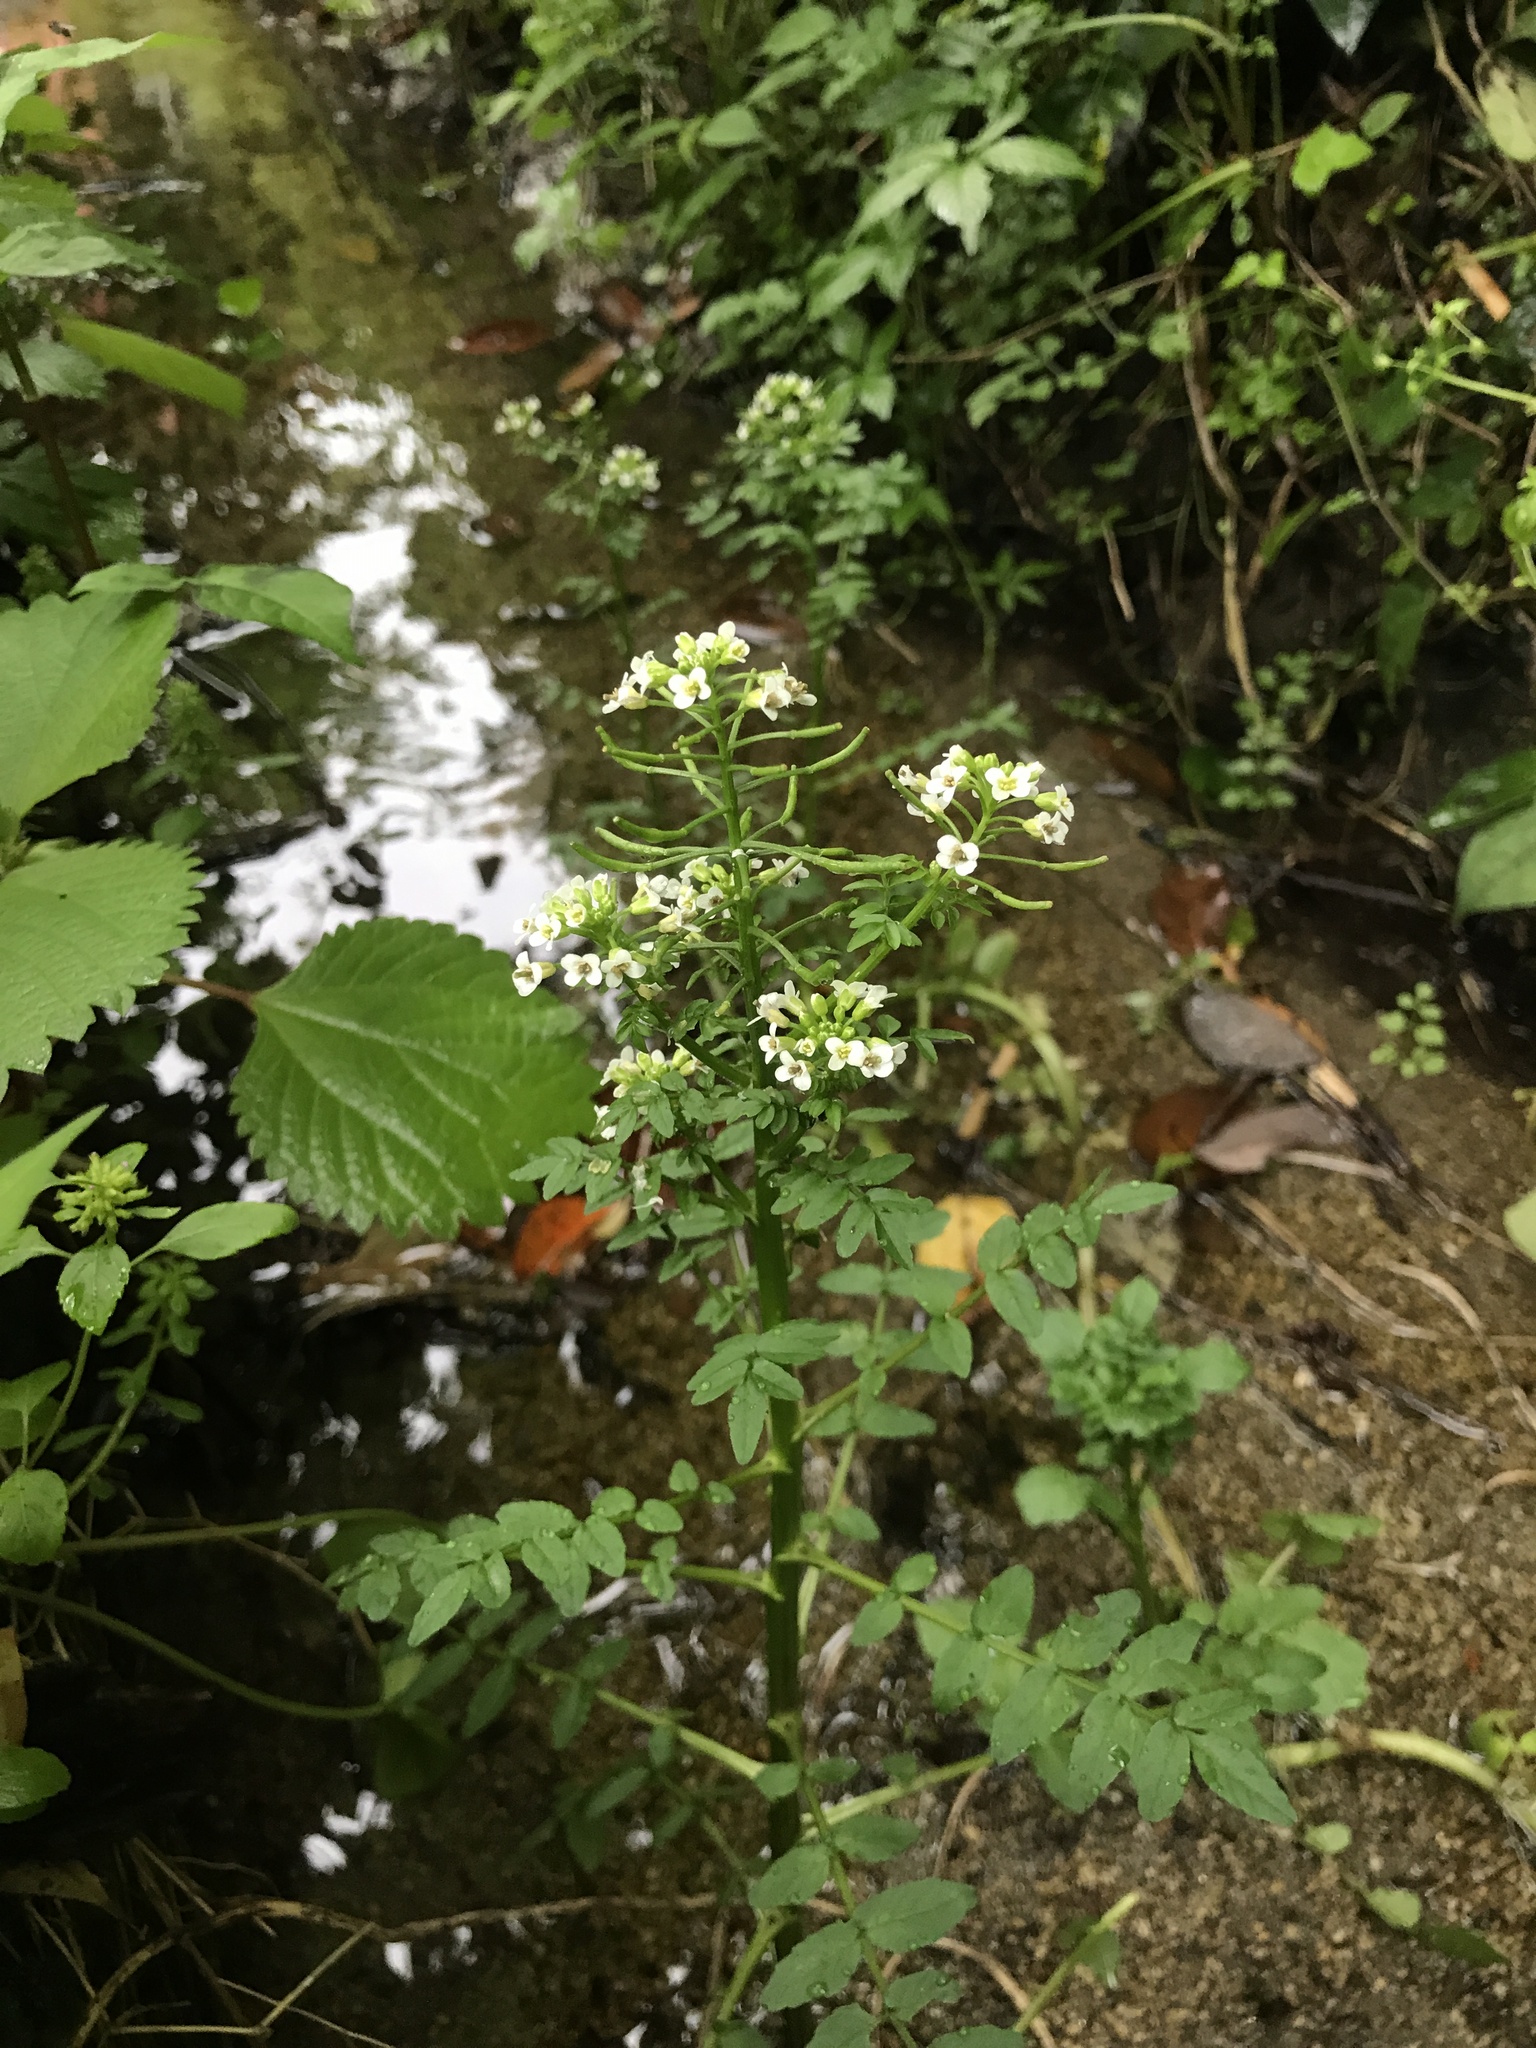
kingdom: Plantae
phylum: Tracheophyta
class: Magnoliopsida
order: Brassicales
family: Brassicaceae
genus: Nasturtium
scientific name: Nasturtium officinale
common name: Watercress
